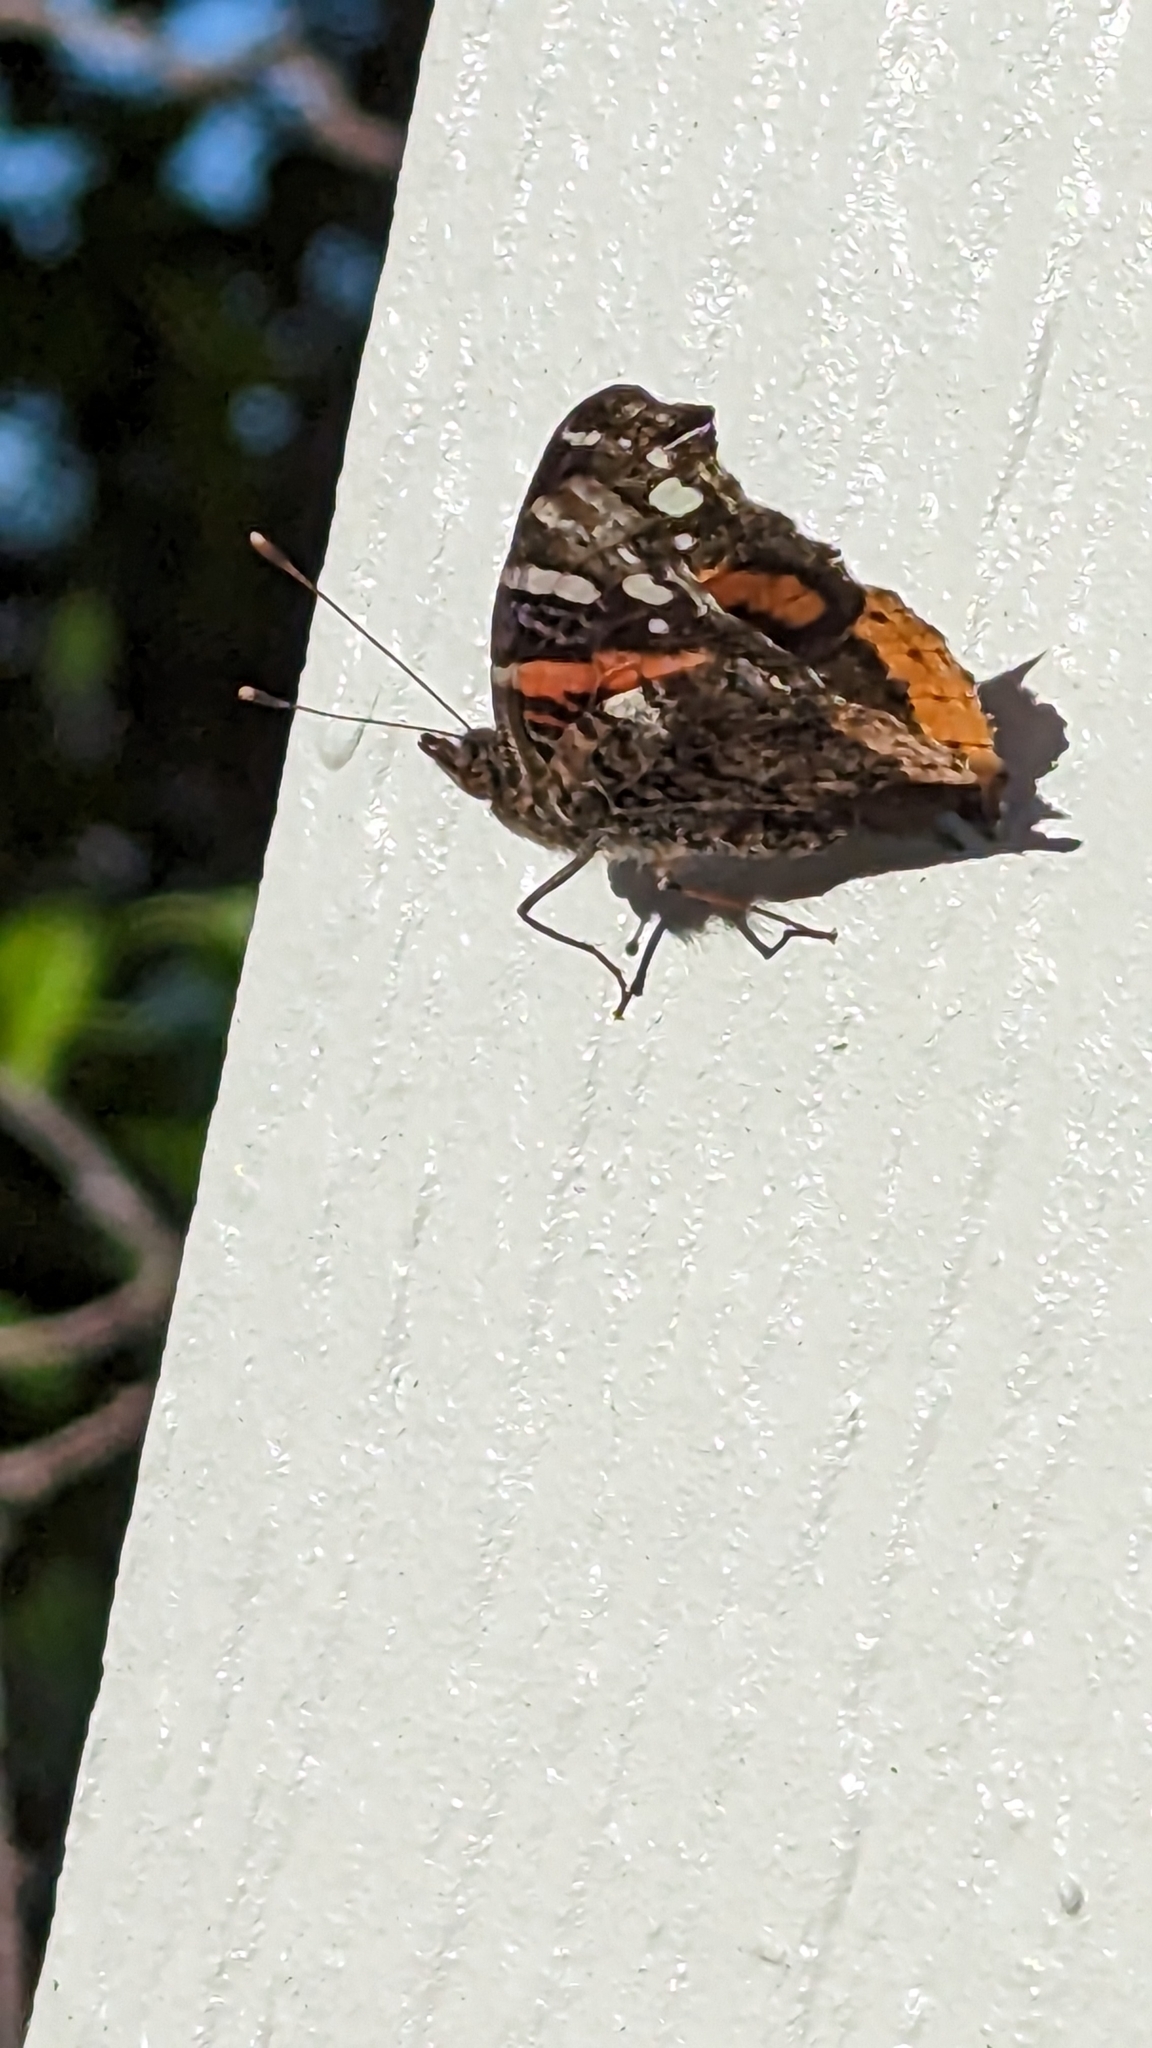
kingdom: Animalia
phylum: Arthropoda
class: Insecta
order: Lepidoptera
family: Nymphalidae
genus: Vanessa
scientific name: Vanessa atalanta
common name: Red admiral
